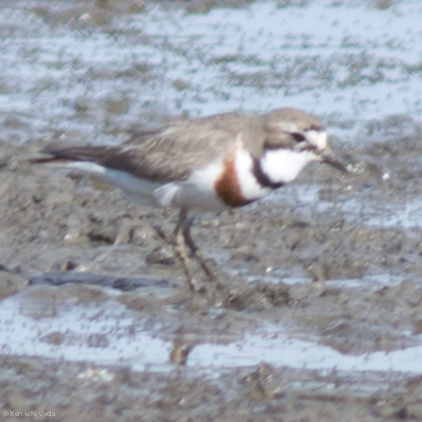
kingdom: Animalia
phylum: Chordata
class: Aves
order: Charadriiformes
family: Charadriidae
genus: Anarhynchus
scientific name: Anarhynchus
